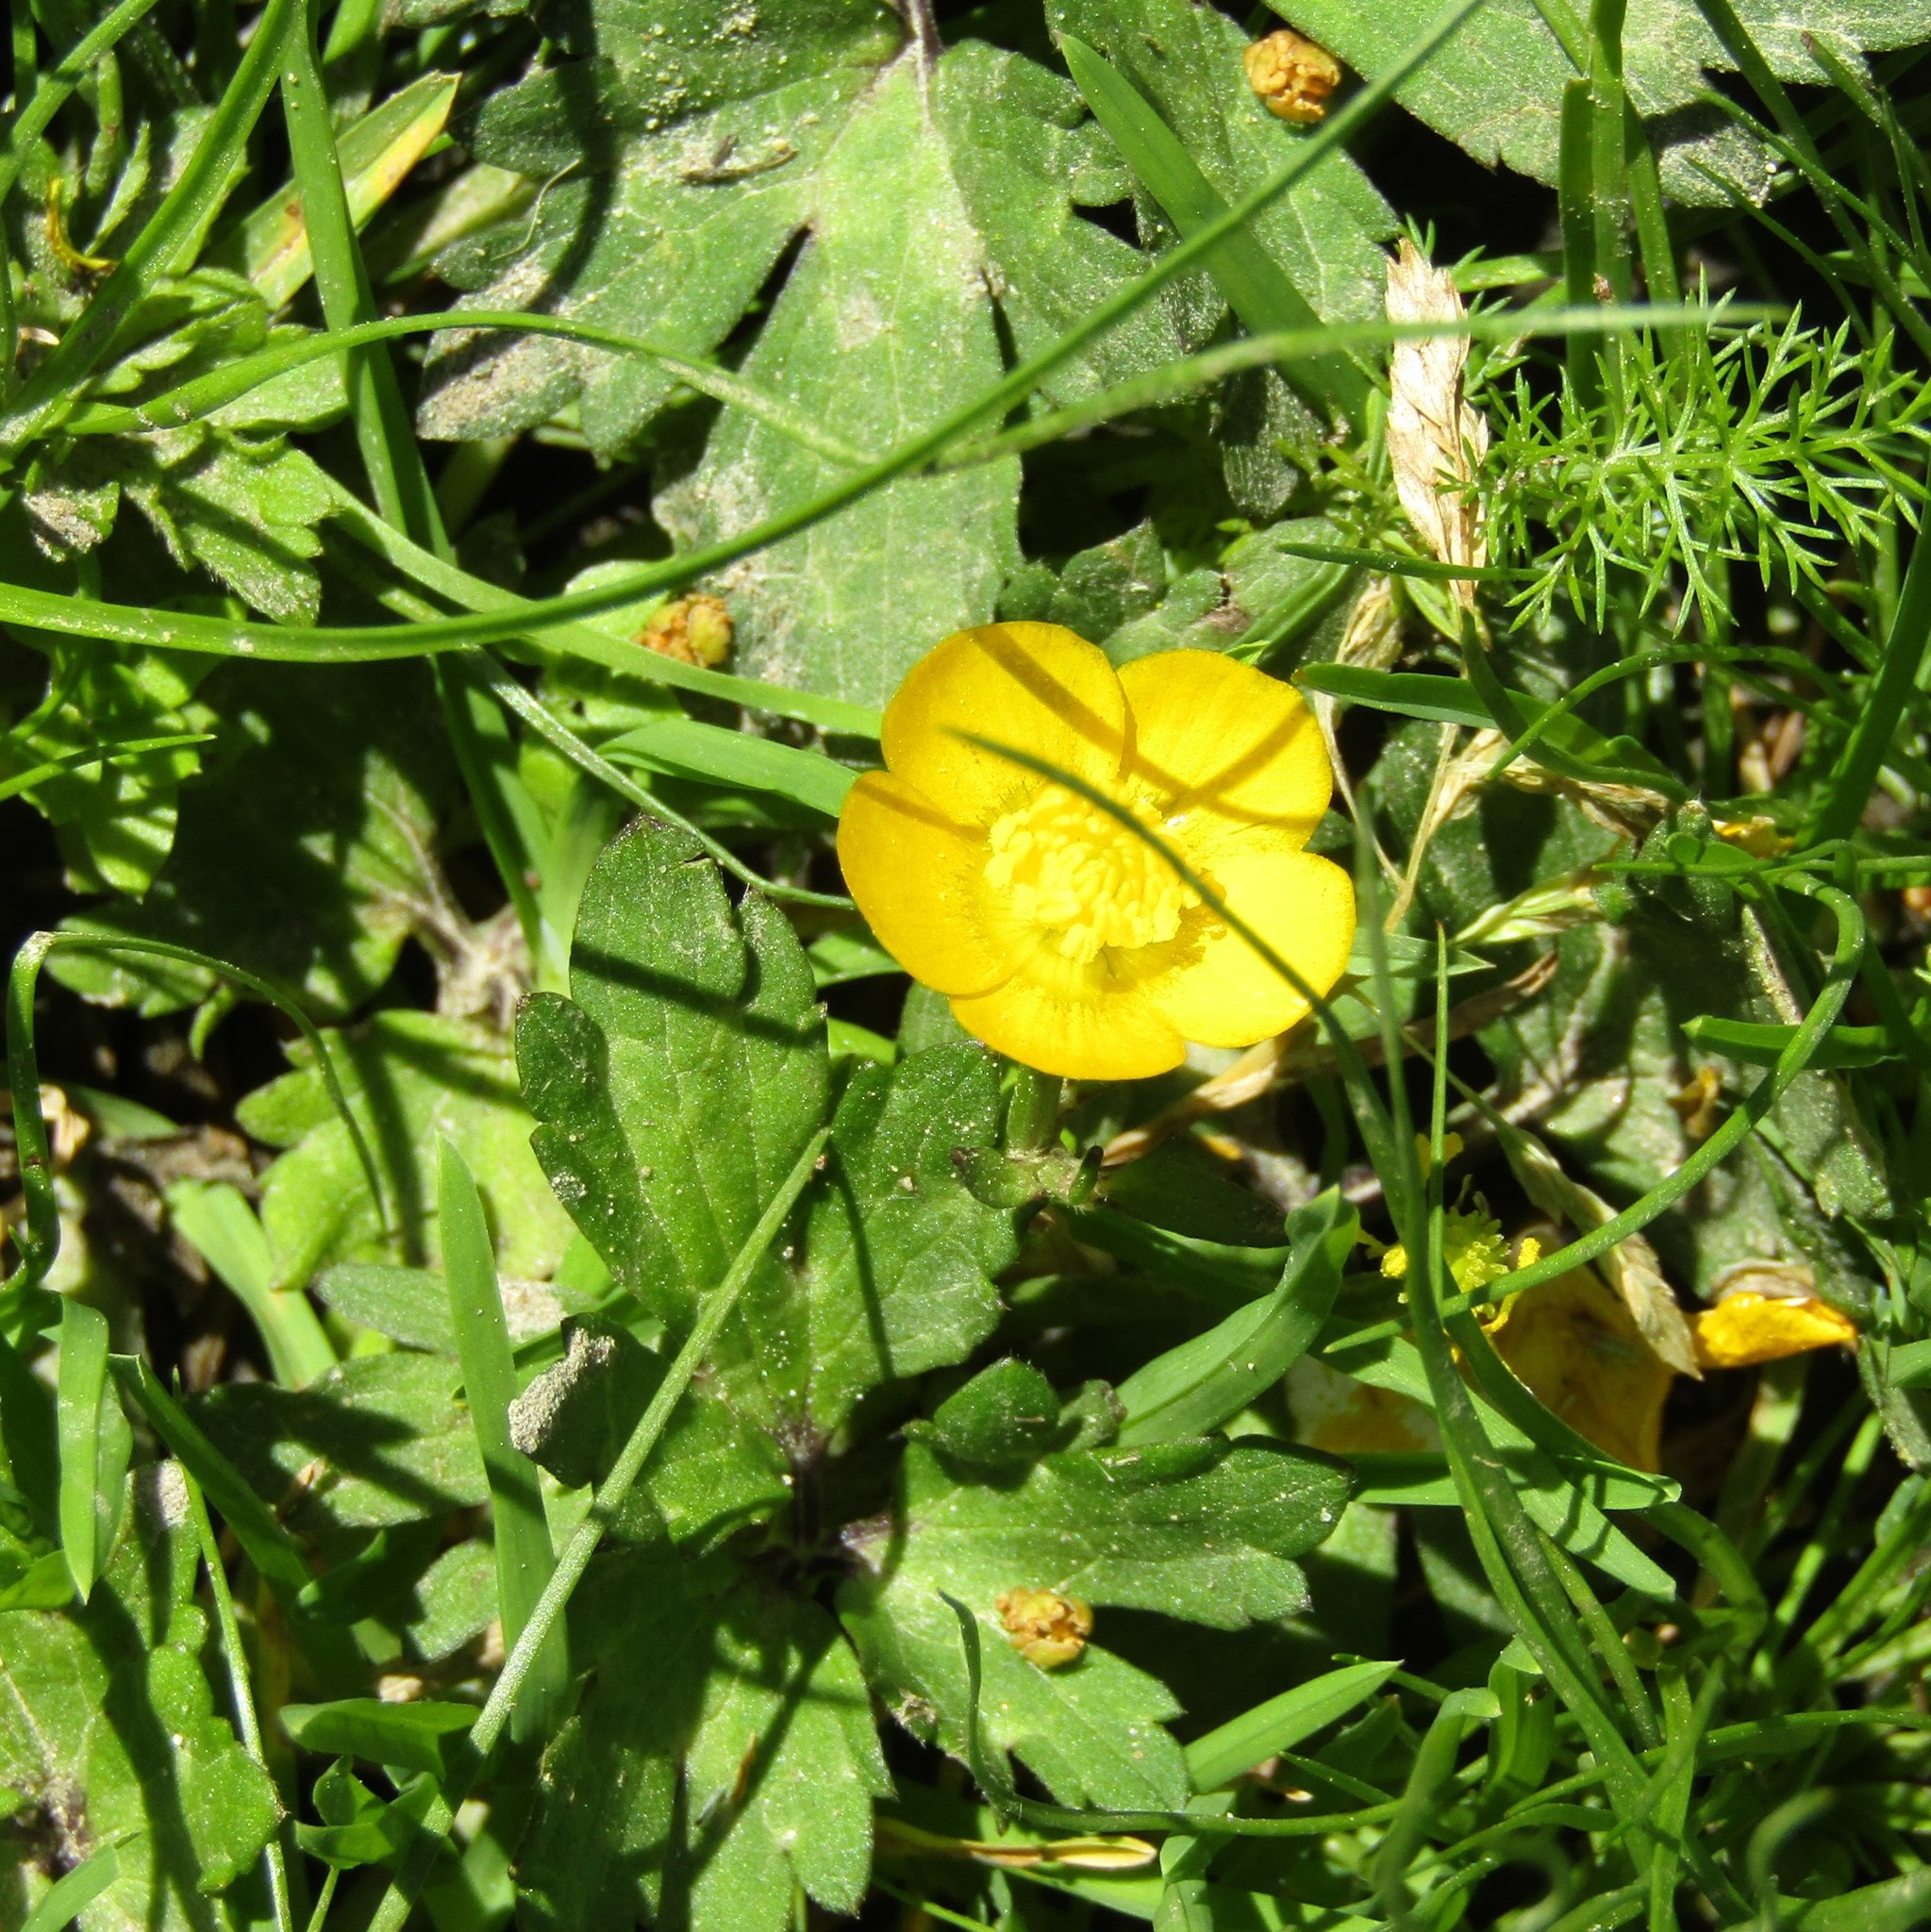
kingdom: Plantae
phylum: Tracheophyta
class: Magnoliopsida
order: Ranunculales
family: Ranunculaceae
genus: Ranunculus
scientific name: Ranunculus repens
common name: Creeping buttercup
